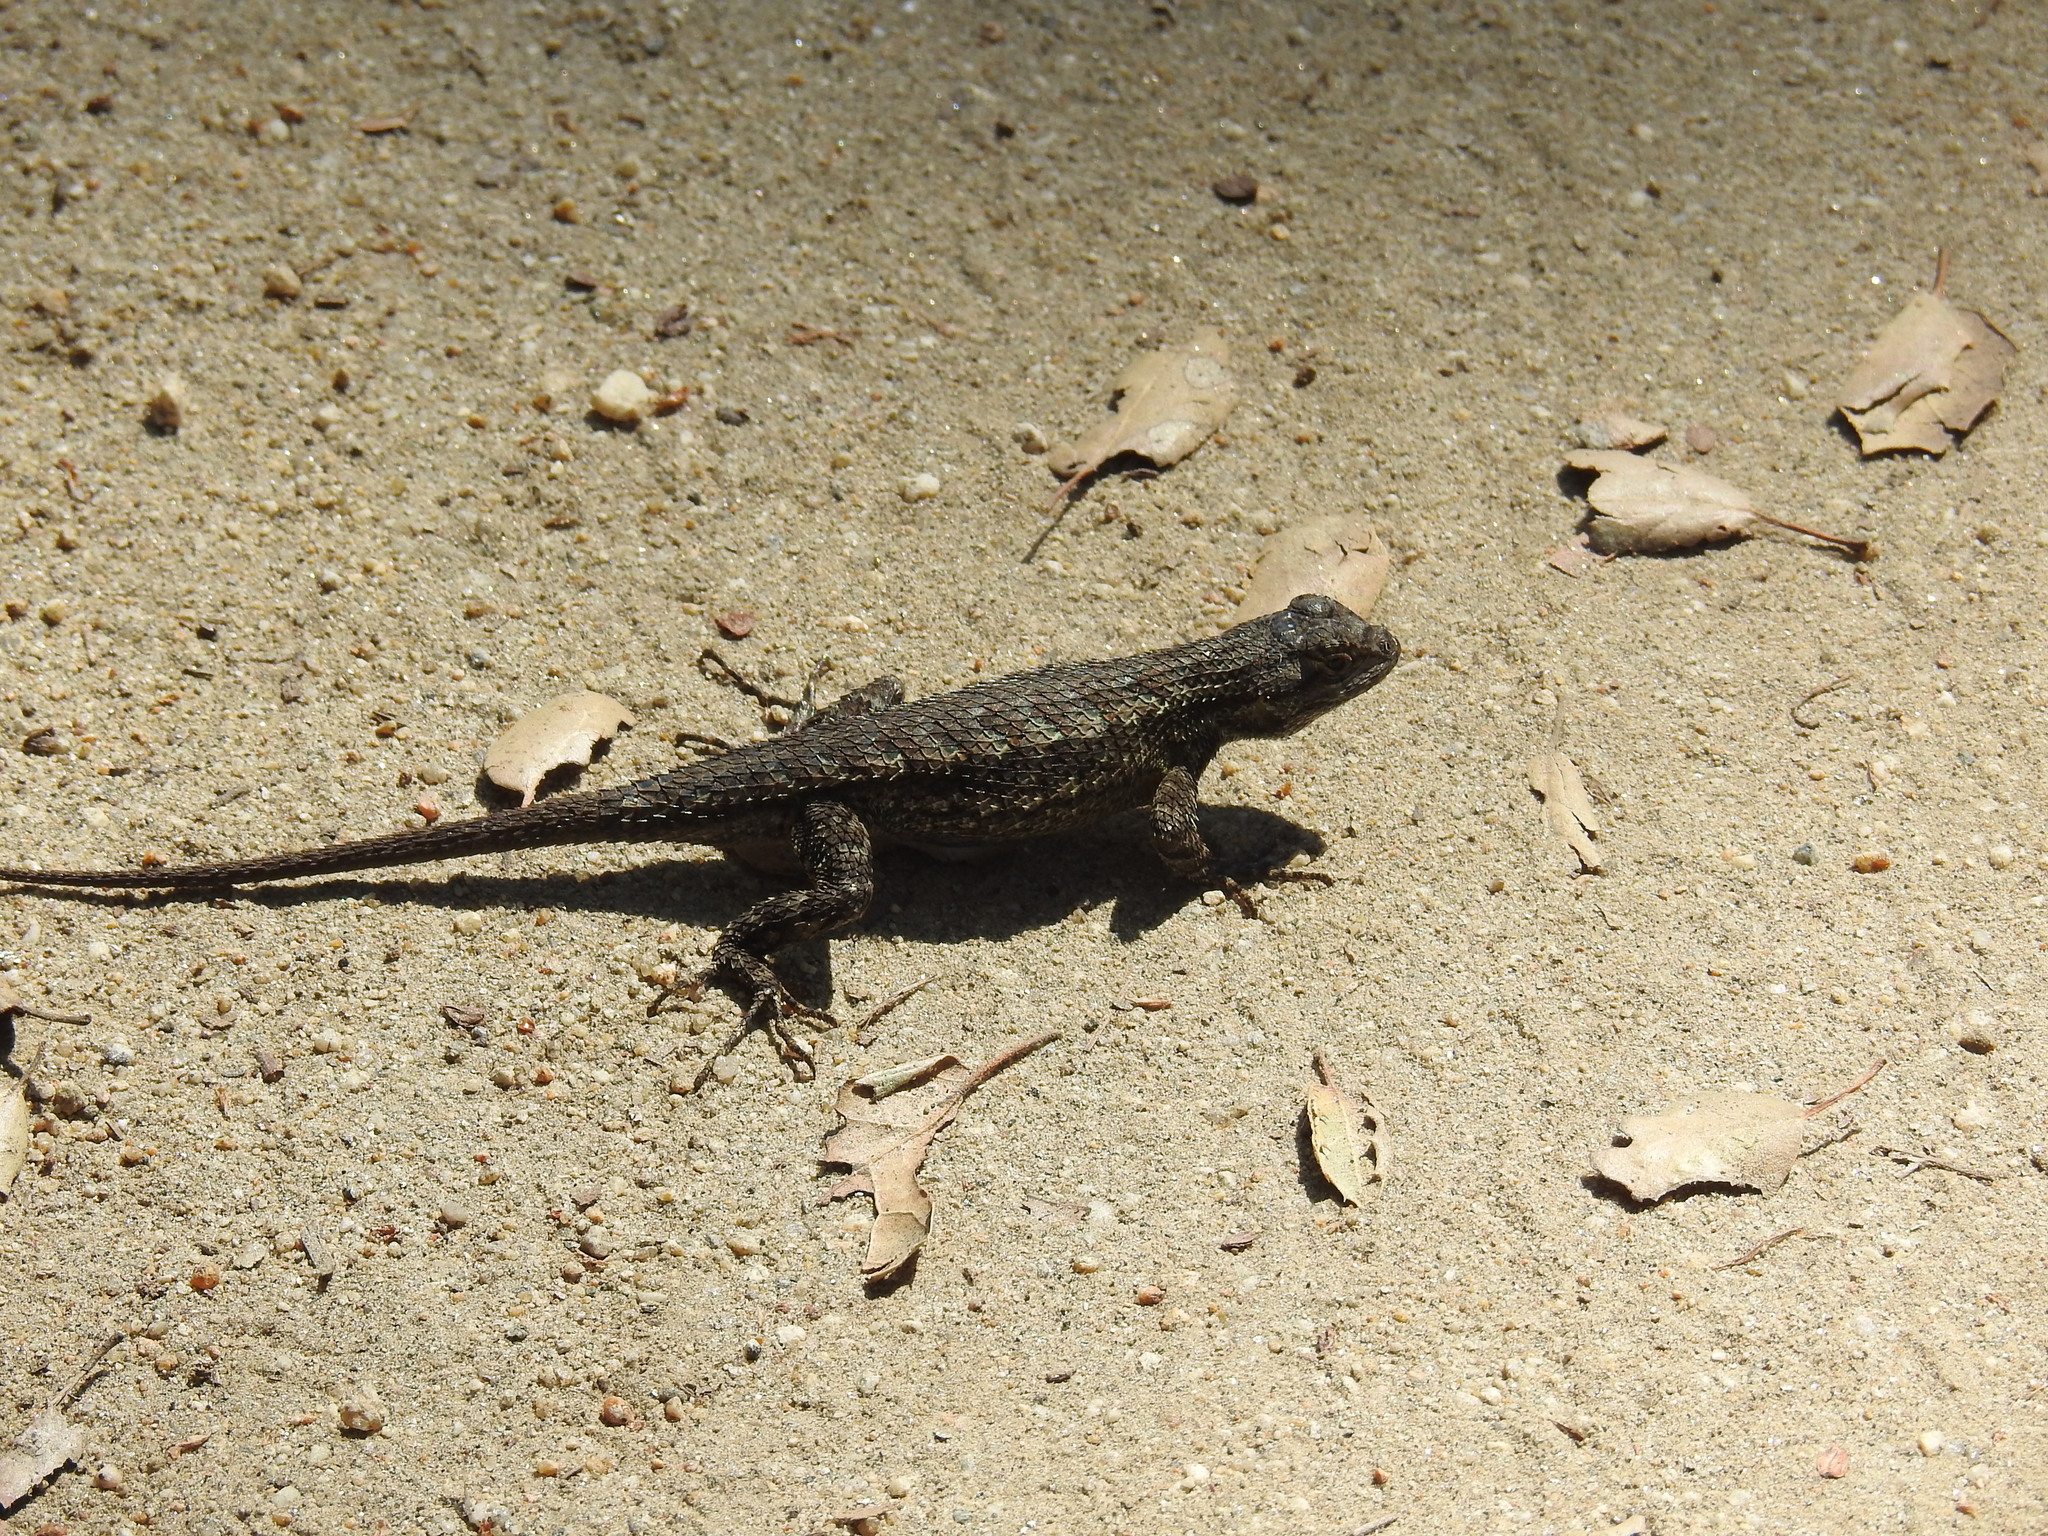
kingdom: Animalia
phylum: Chordata
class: Squamata
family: Phrynosomatidae
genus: Sceloporus
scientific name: Sceloporus occidentalis
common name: Western fence lizard
